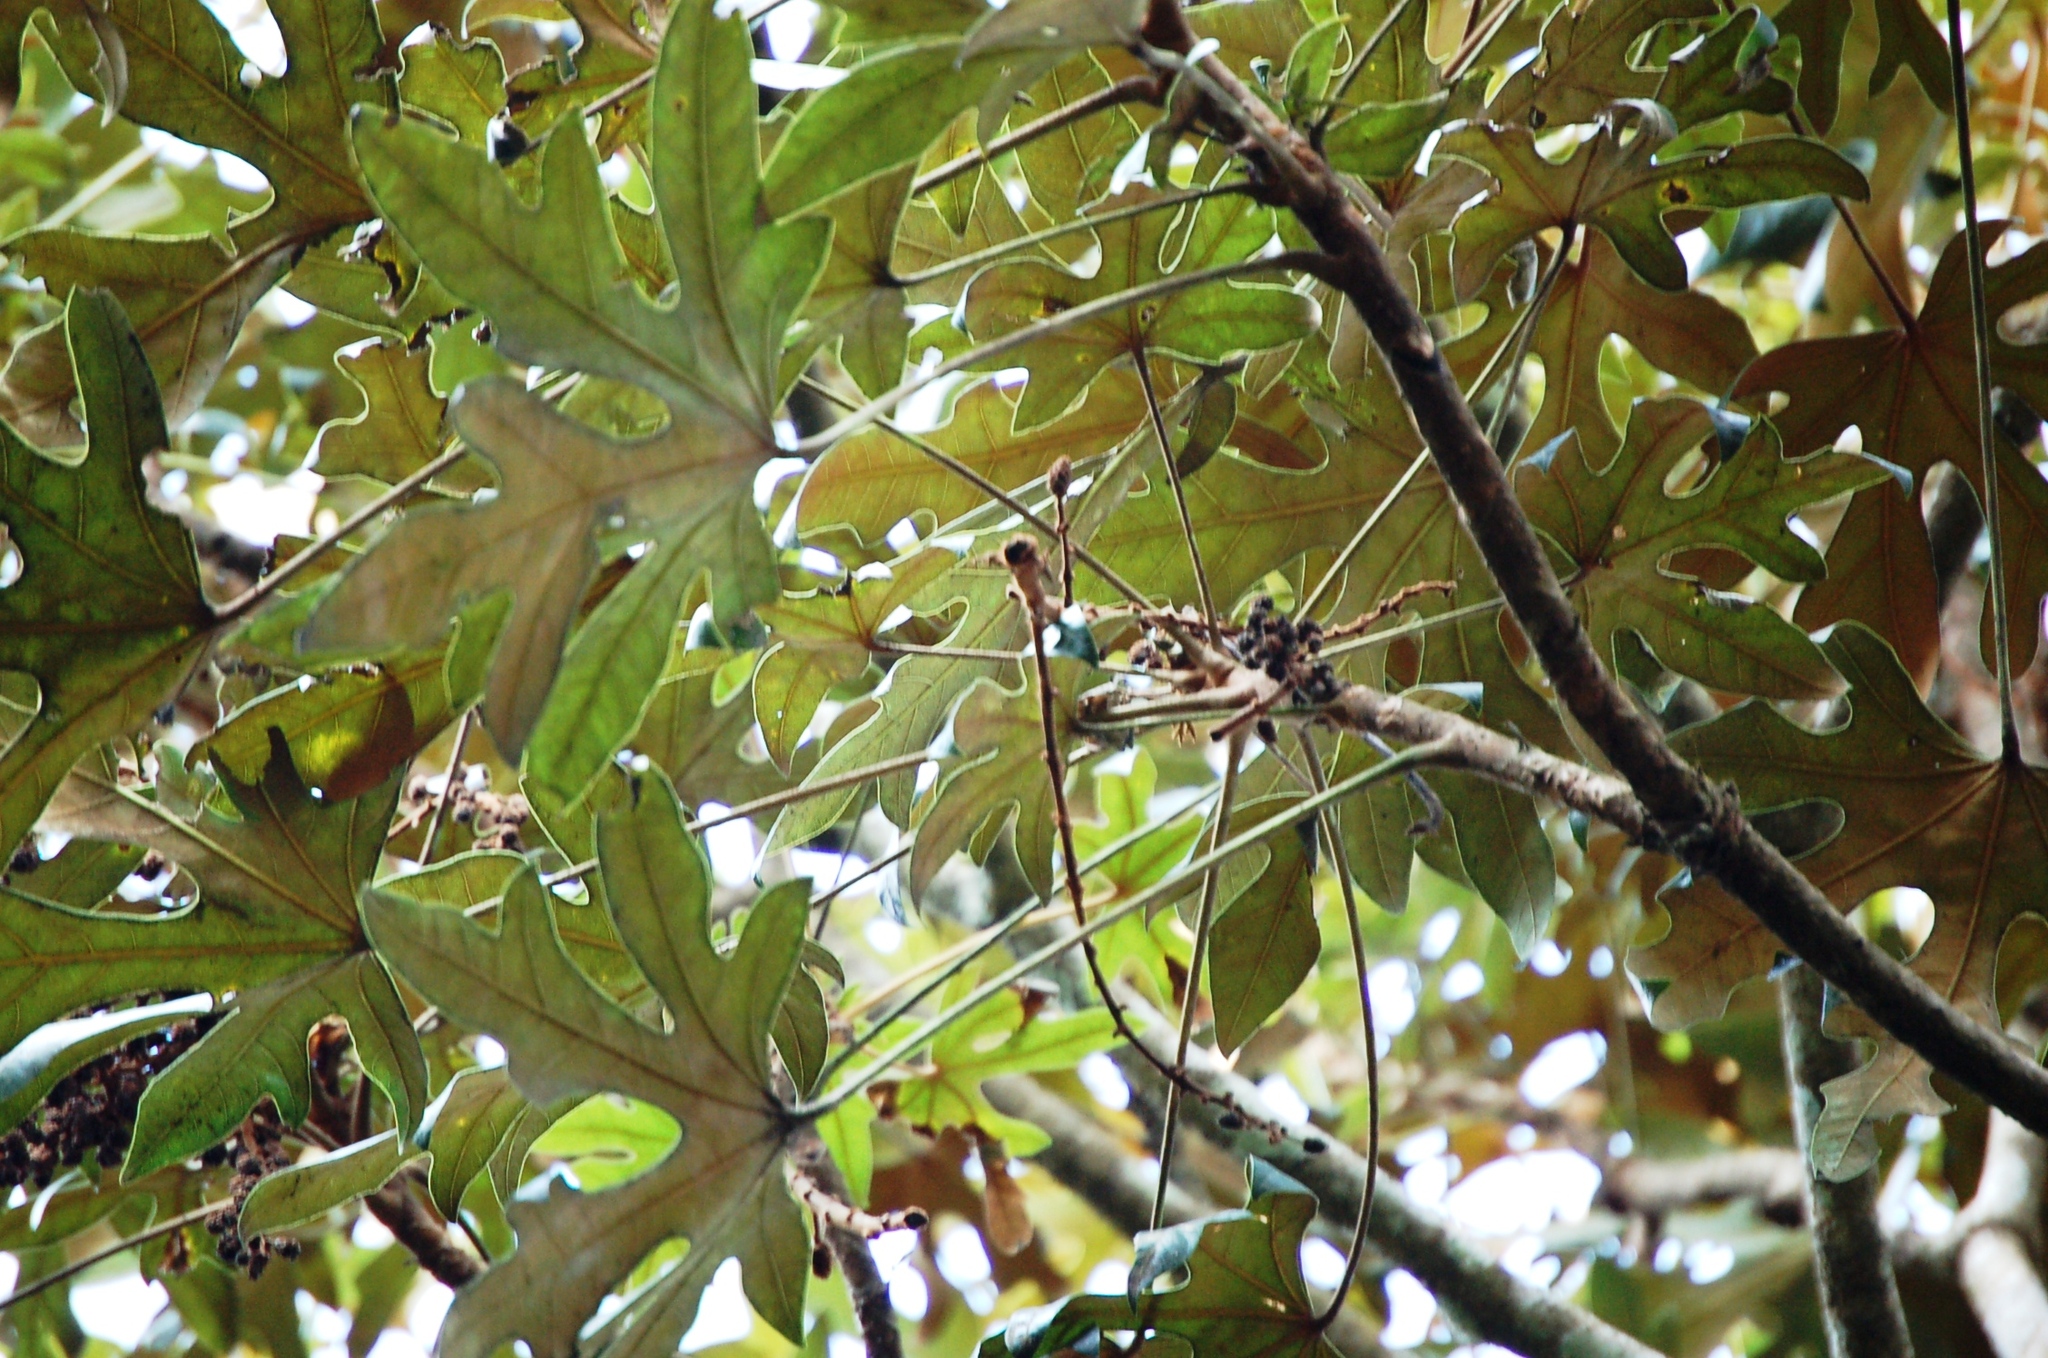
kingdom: Plantae
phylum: Tracheophyta
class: Magnoliopsida
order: Apiales
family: Araliaceae
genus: Oreopanax
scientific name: Oreopanax geminatus
